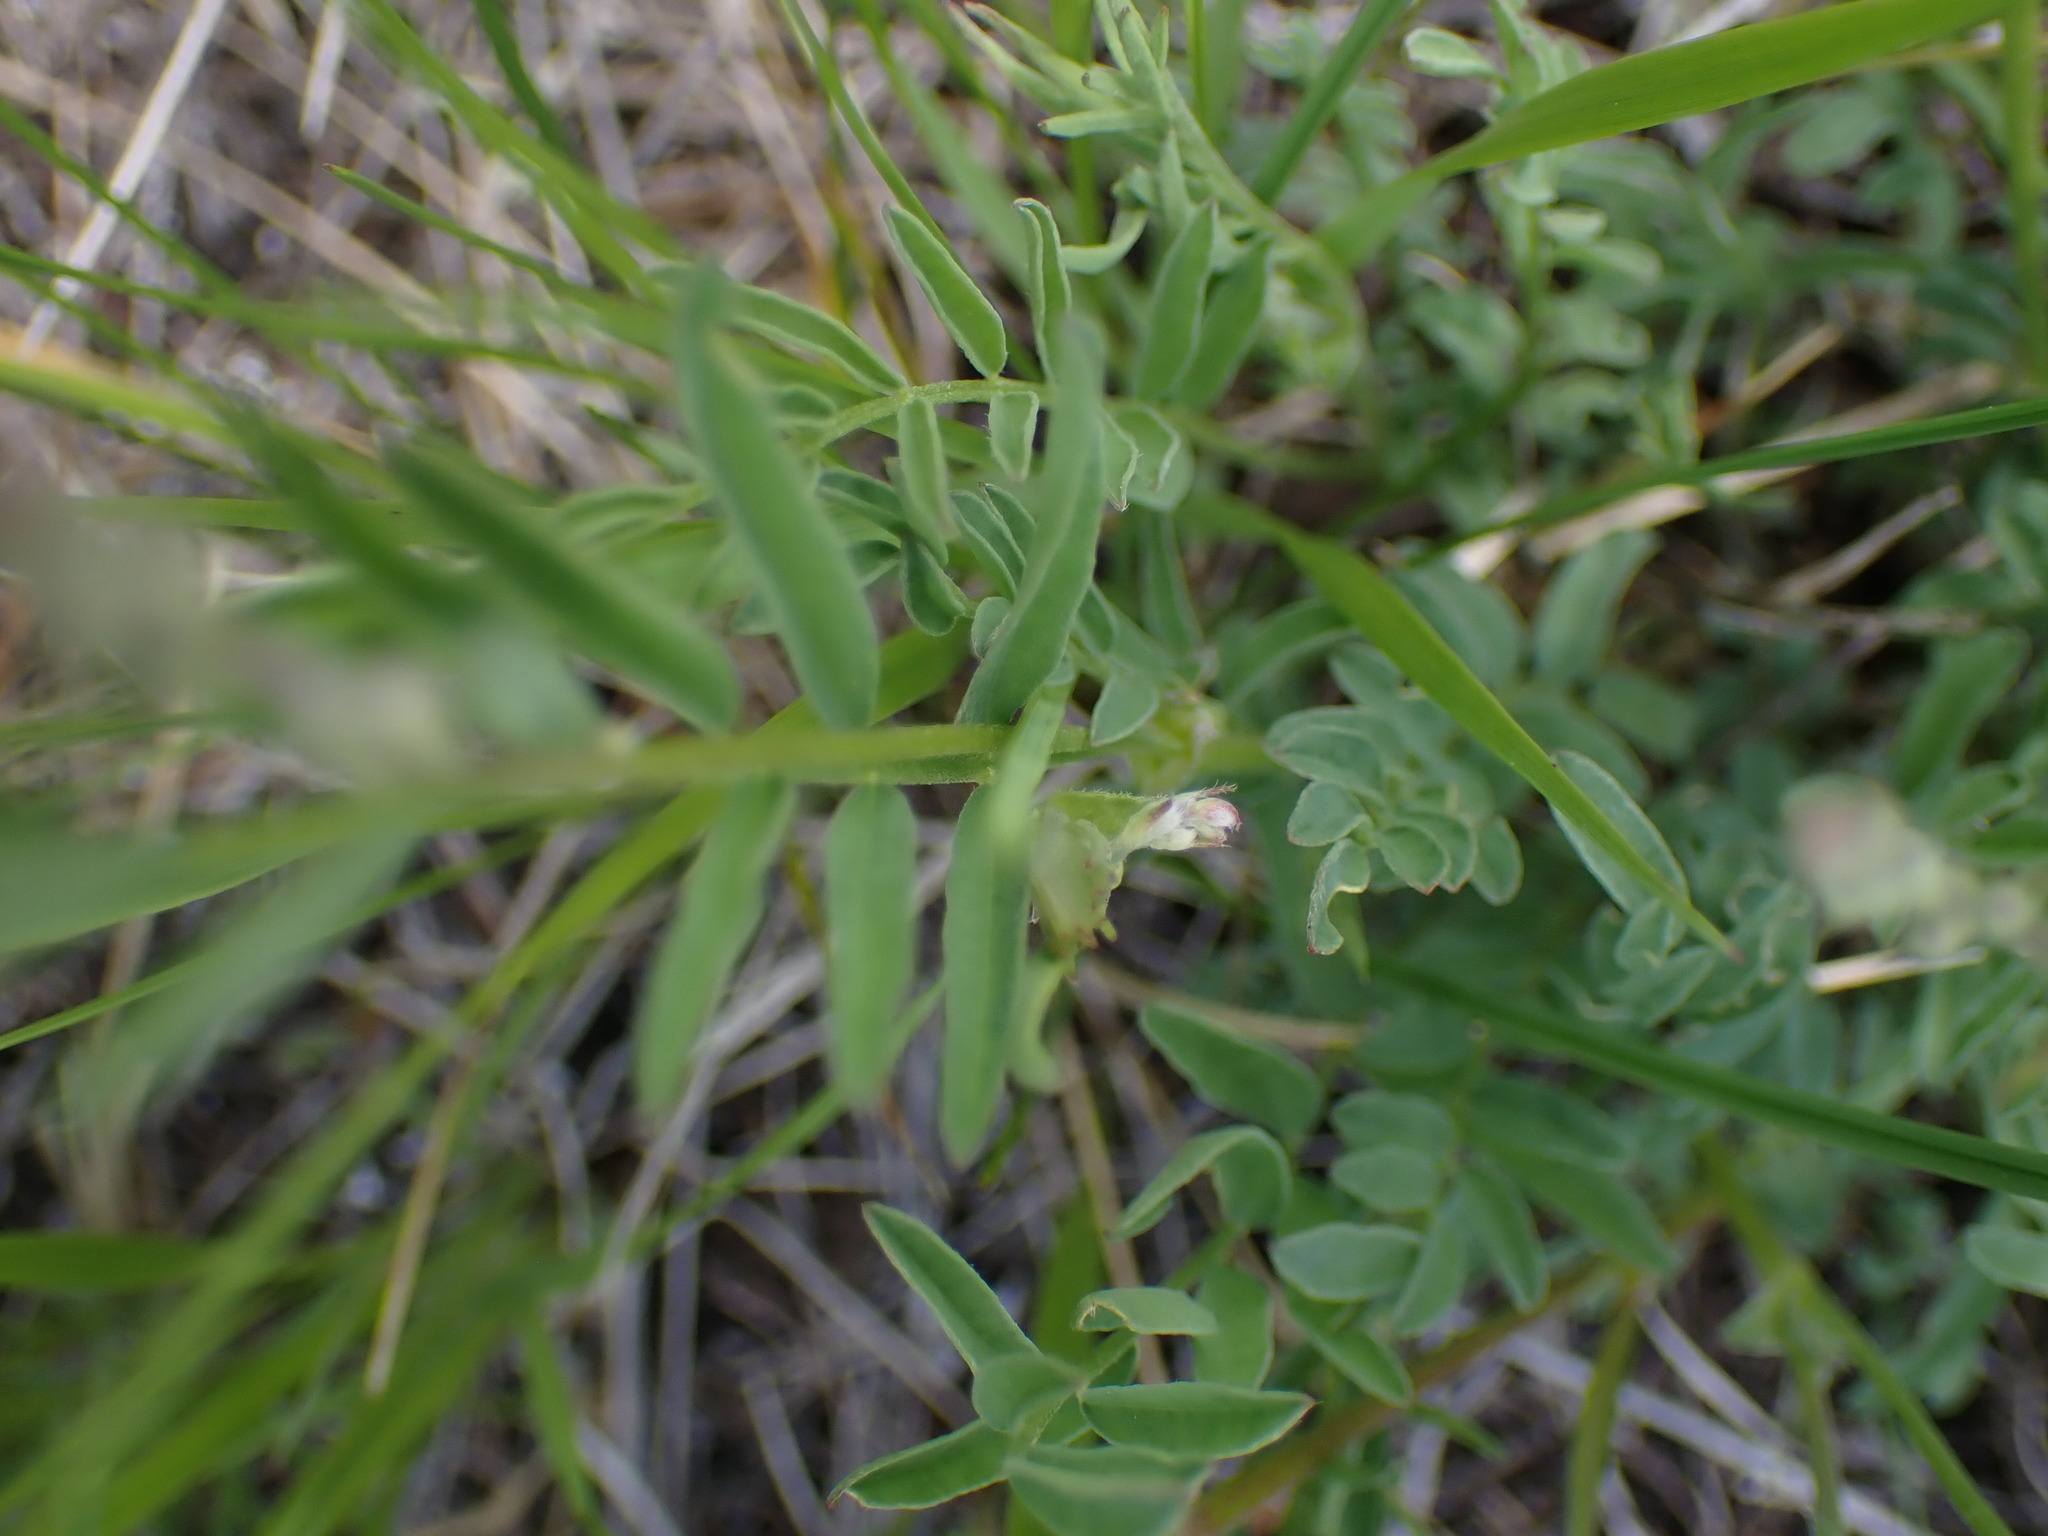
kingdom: Plantae
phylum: Tracheophyta
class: Magnoliopsida
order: Fabales
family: Fabaceae
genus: Astragalus
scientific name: Astragalus miser
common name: Timber milkvetch
